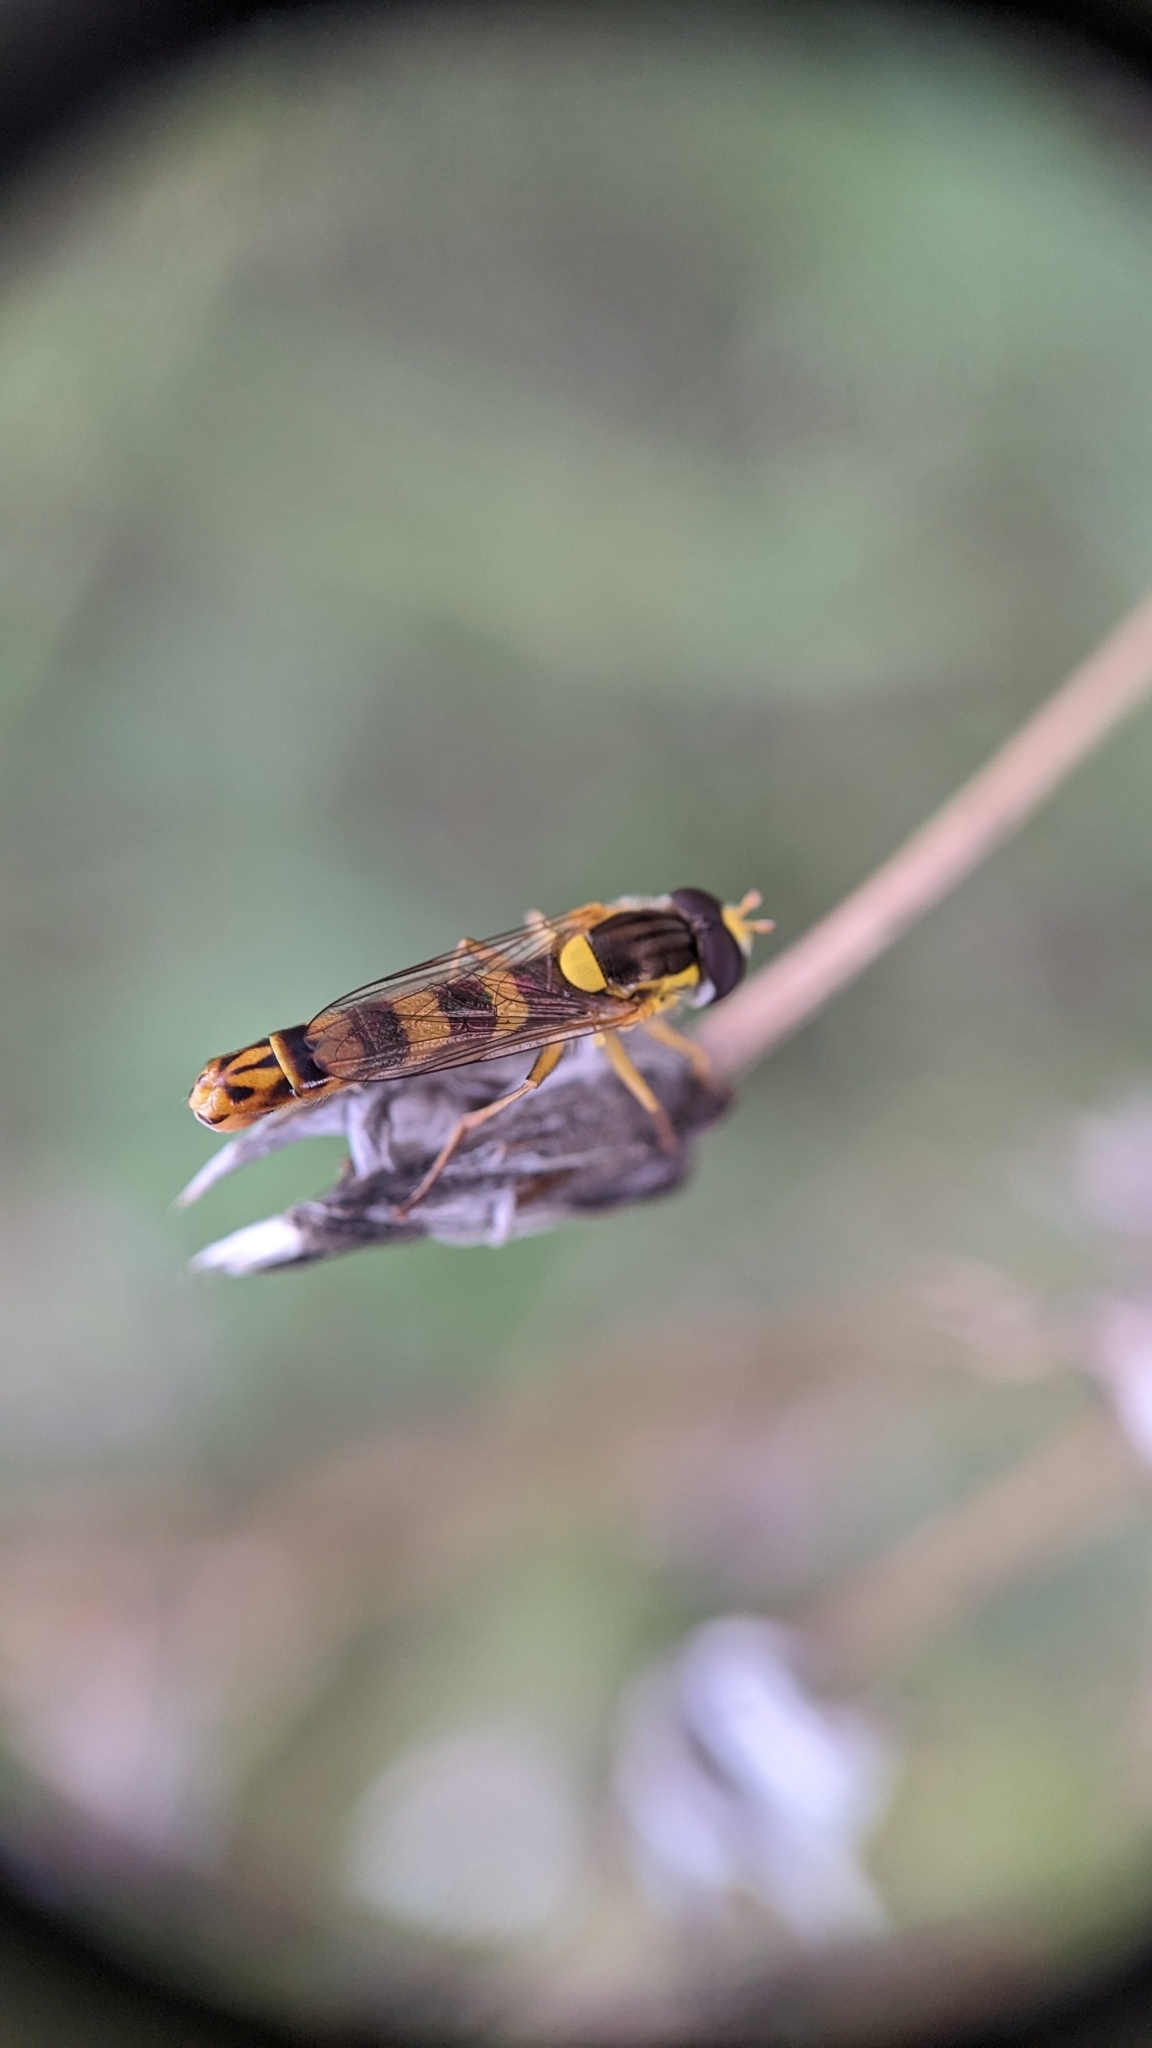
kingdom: Animalia
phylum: Arthropoda
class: Insecta
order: Diptera
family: Syrphidae
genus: Sphaerophoria
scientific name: Sphaerophoria scripta
